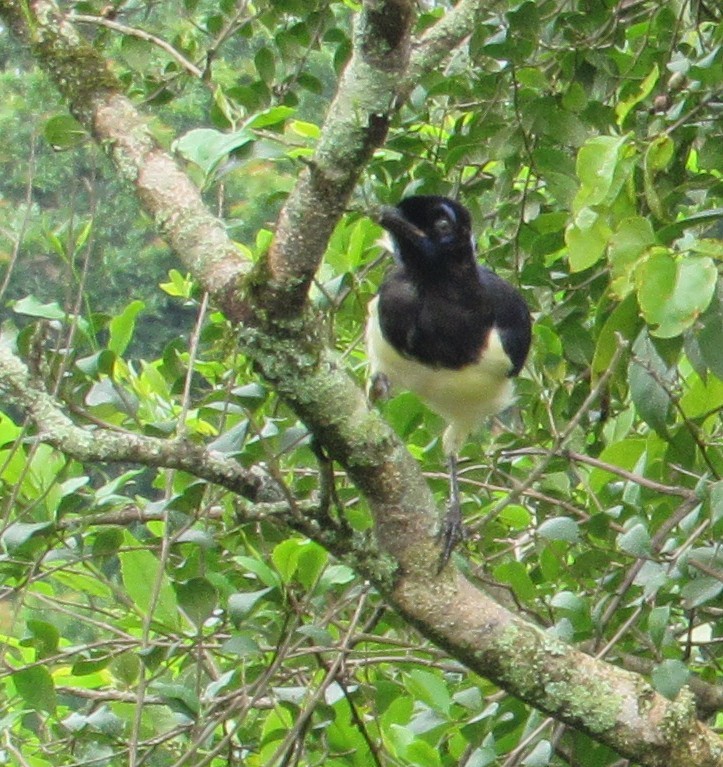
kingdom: Animalia
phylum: Chordata
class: Aves
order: Passeriformes
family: Corvidae
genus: Cyanocorax
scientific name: Cyanocorax chrysops
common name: Plush-crested jay
